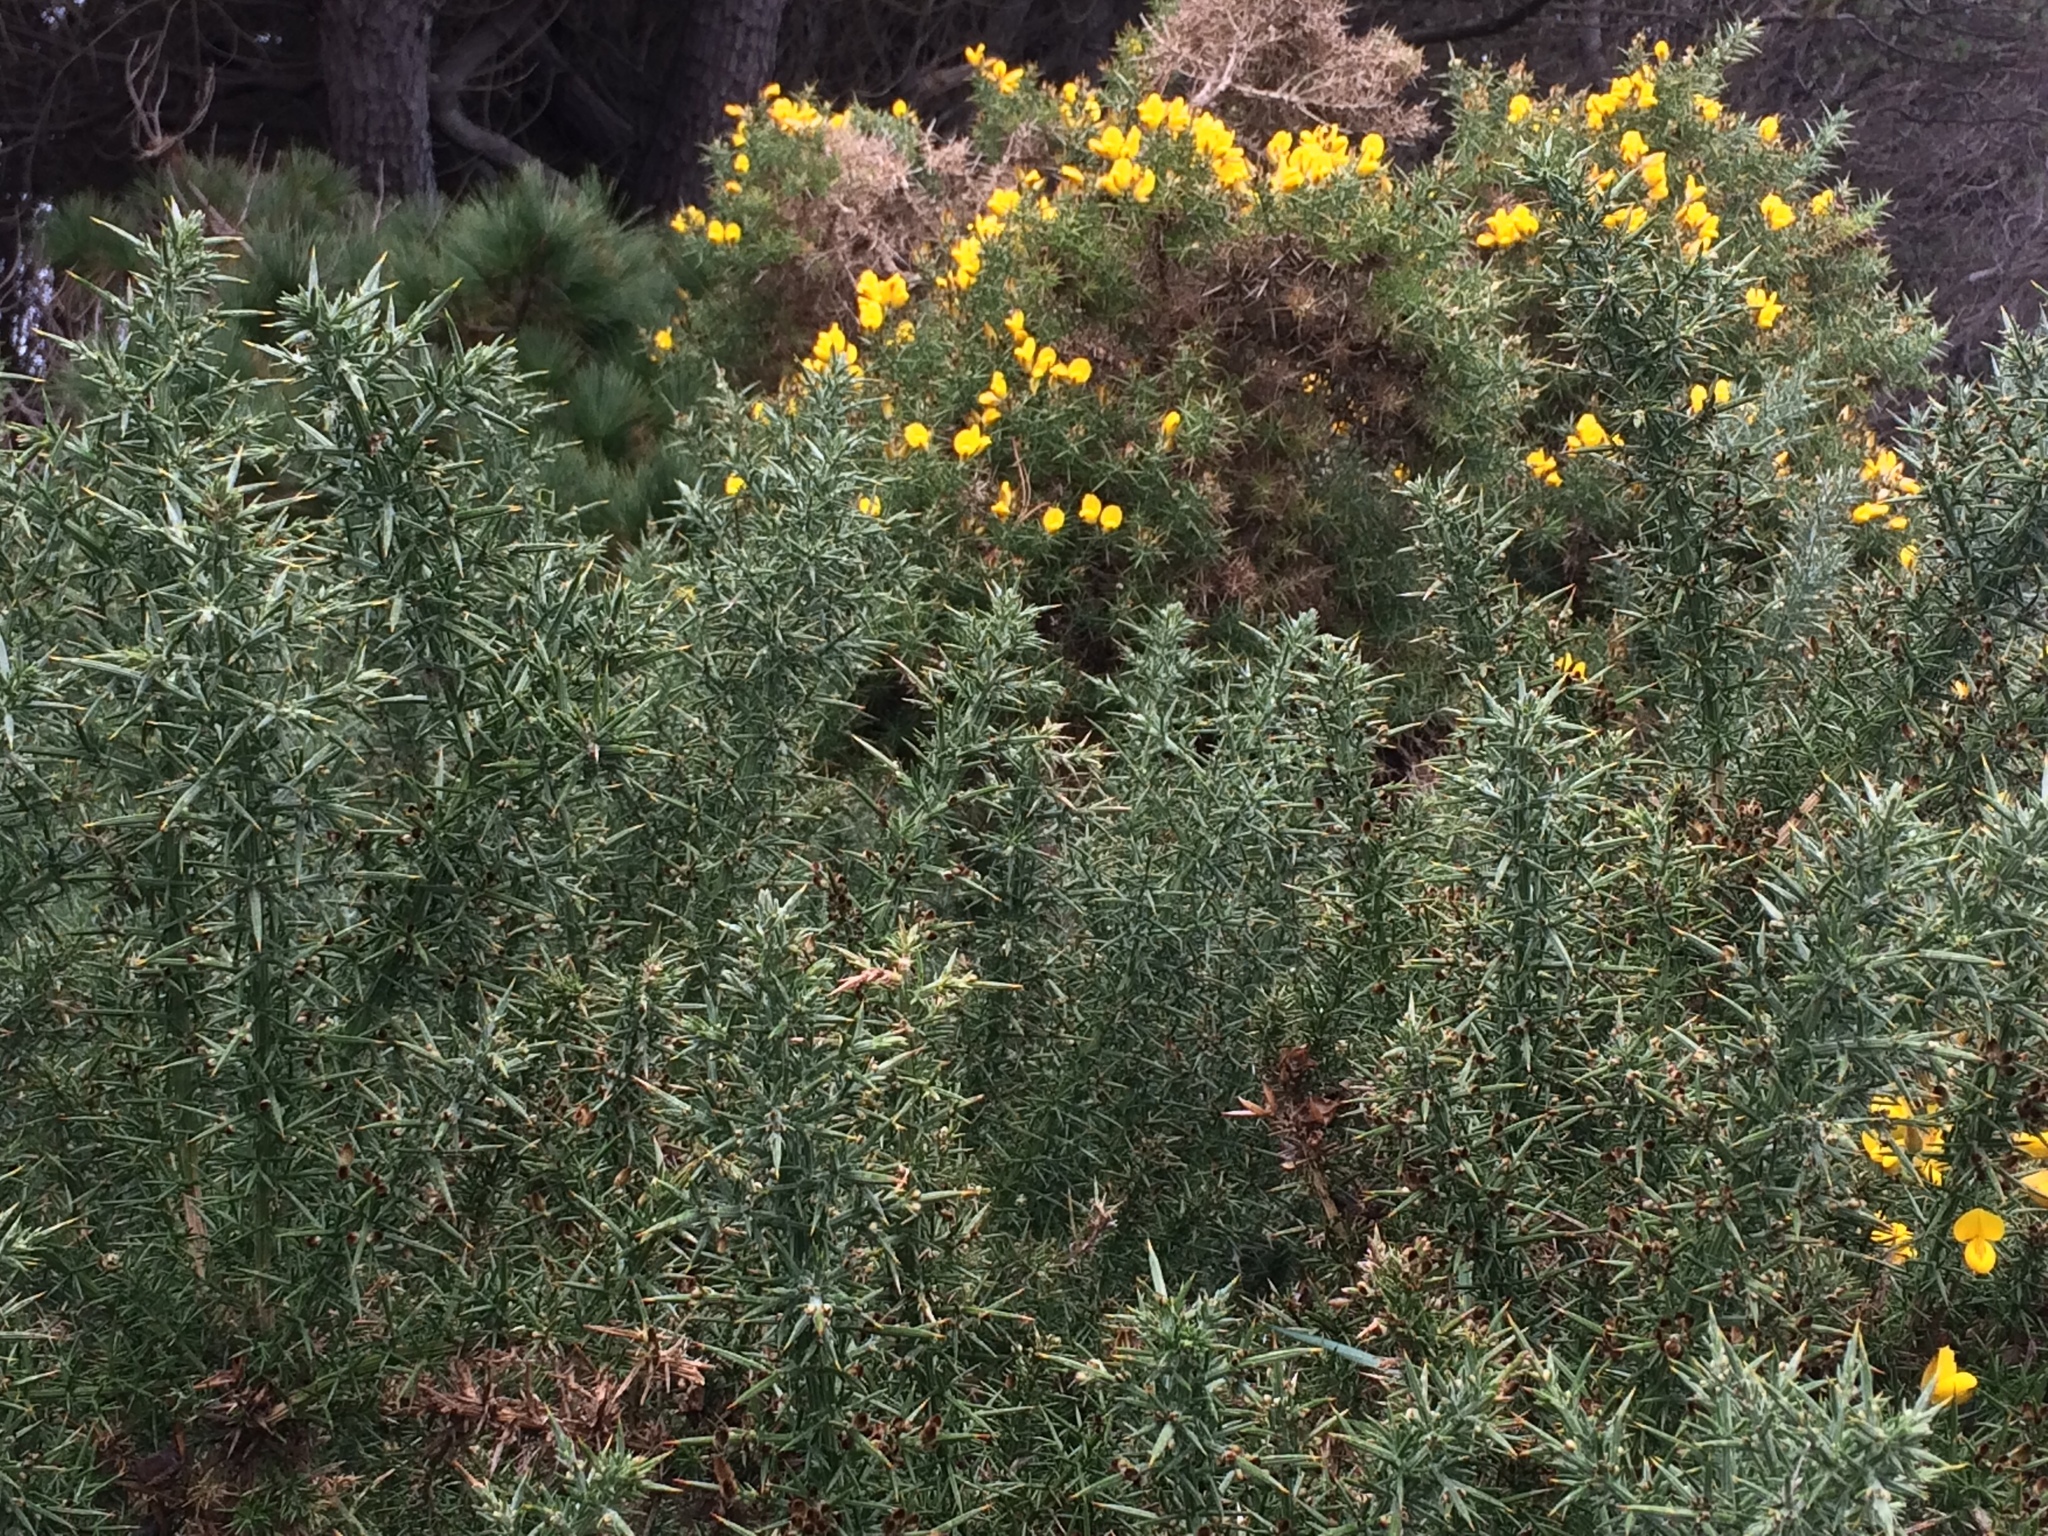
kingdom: Plantae
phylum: Tracheophyta
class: Magnoliopsida
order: Fabales
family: Fabaceae
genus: Ulex
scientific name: Ulex europaeus
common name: Common gorse
